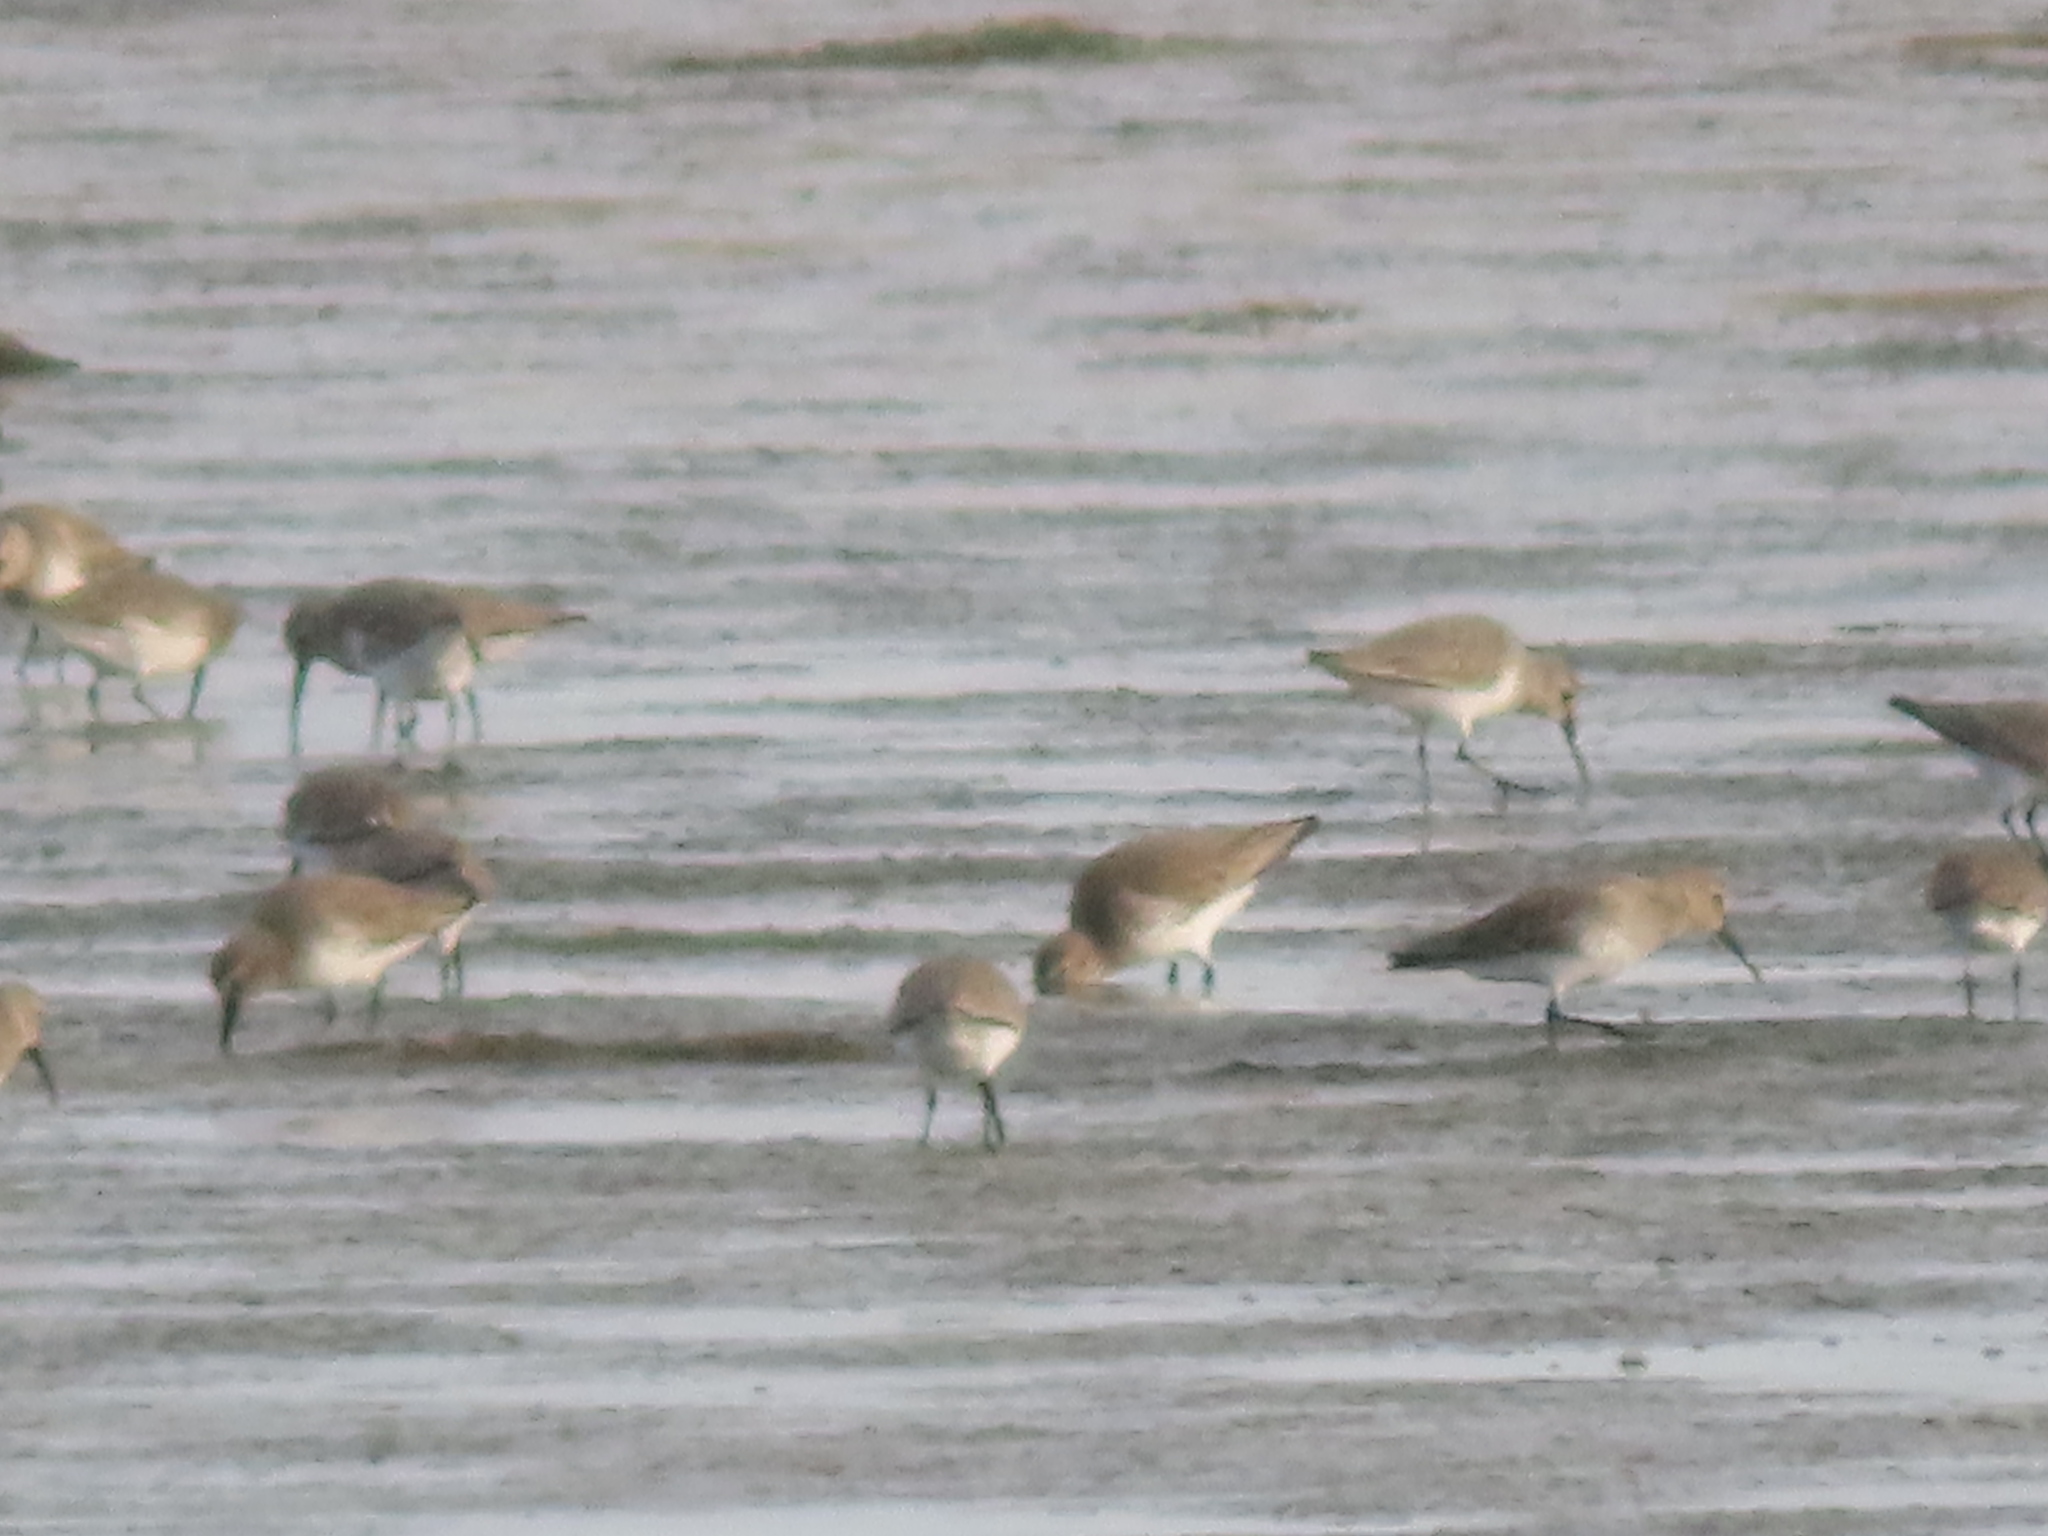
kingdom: Animalia
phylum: Chordata
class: Aves
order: Charadriiformes
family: Scolopacidae
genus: Calidris
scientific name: Calidris alpina
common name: Dunlin
